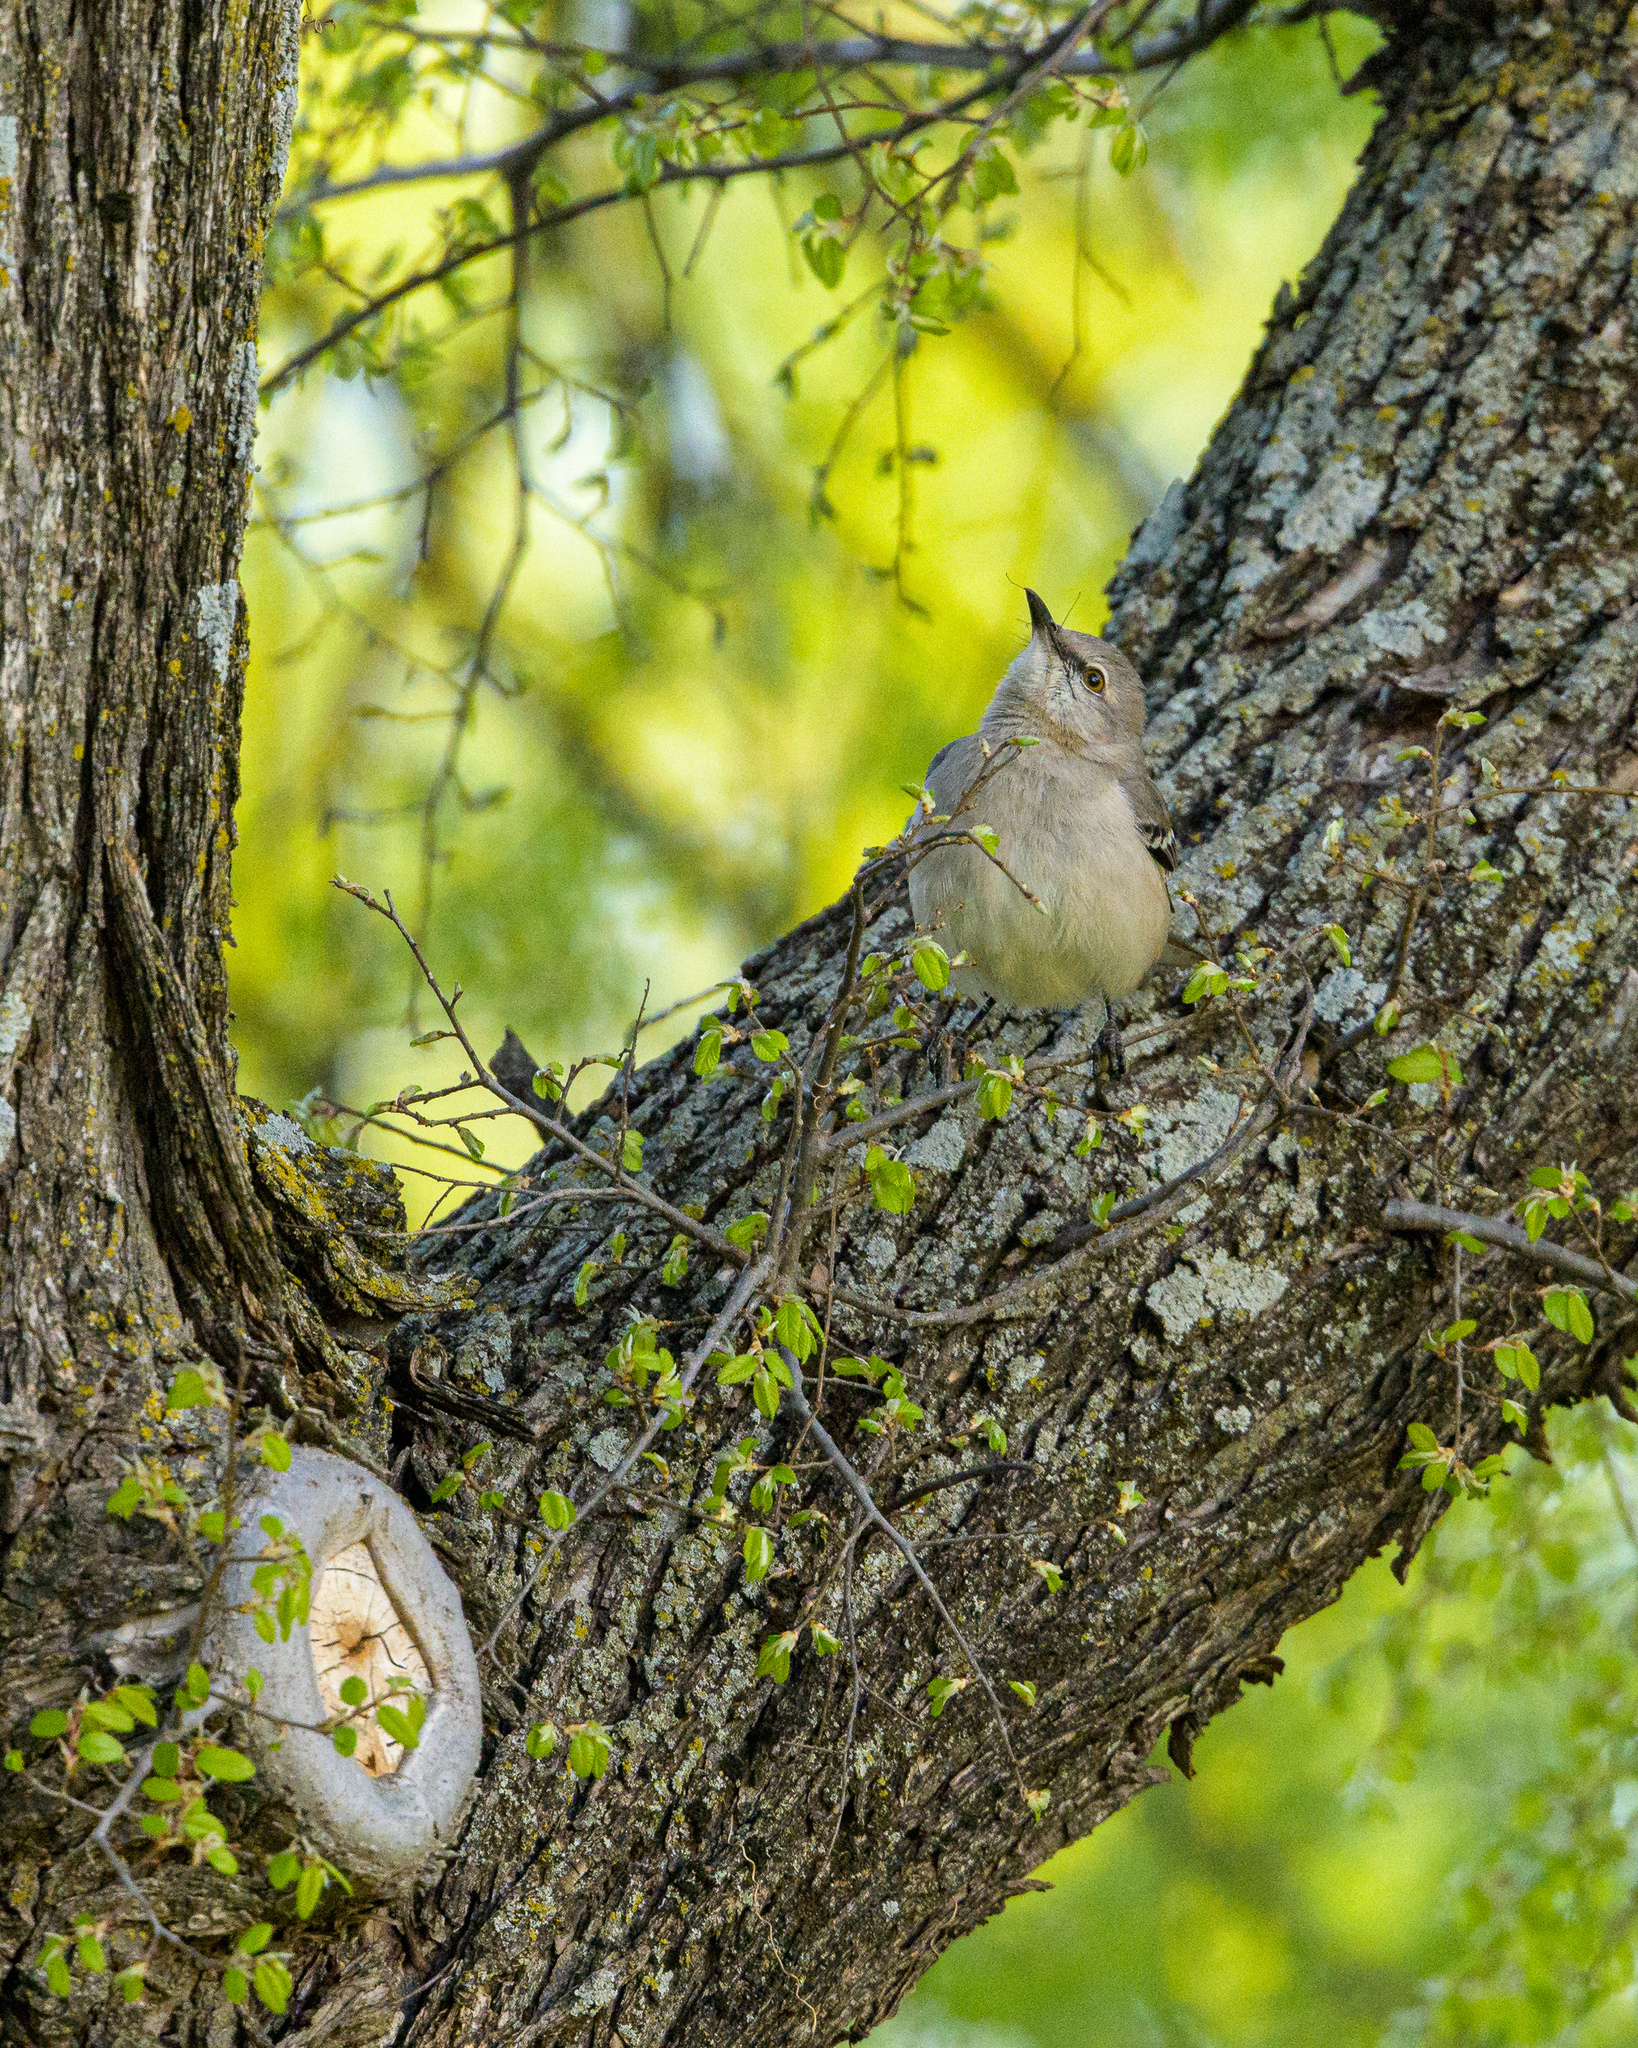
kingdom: Animalia
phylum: Chordata
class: Aves
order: Passeriformes
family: Mimidae
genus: Mimus
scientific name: Mimus polyglottos
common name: Northern mockingbird
